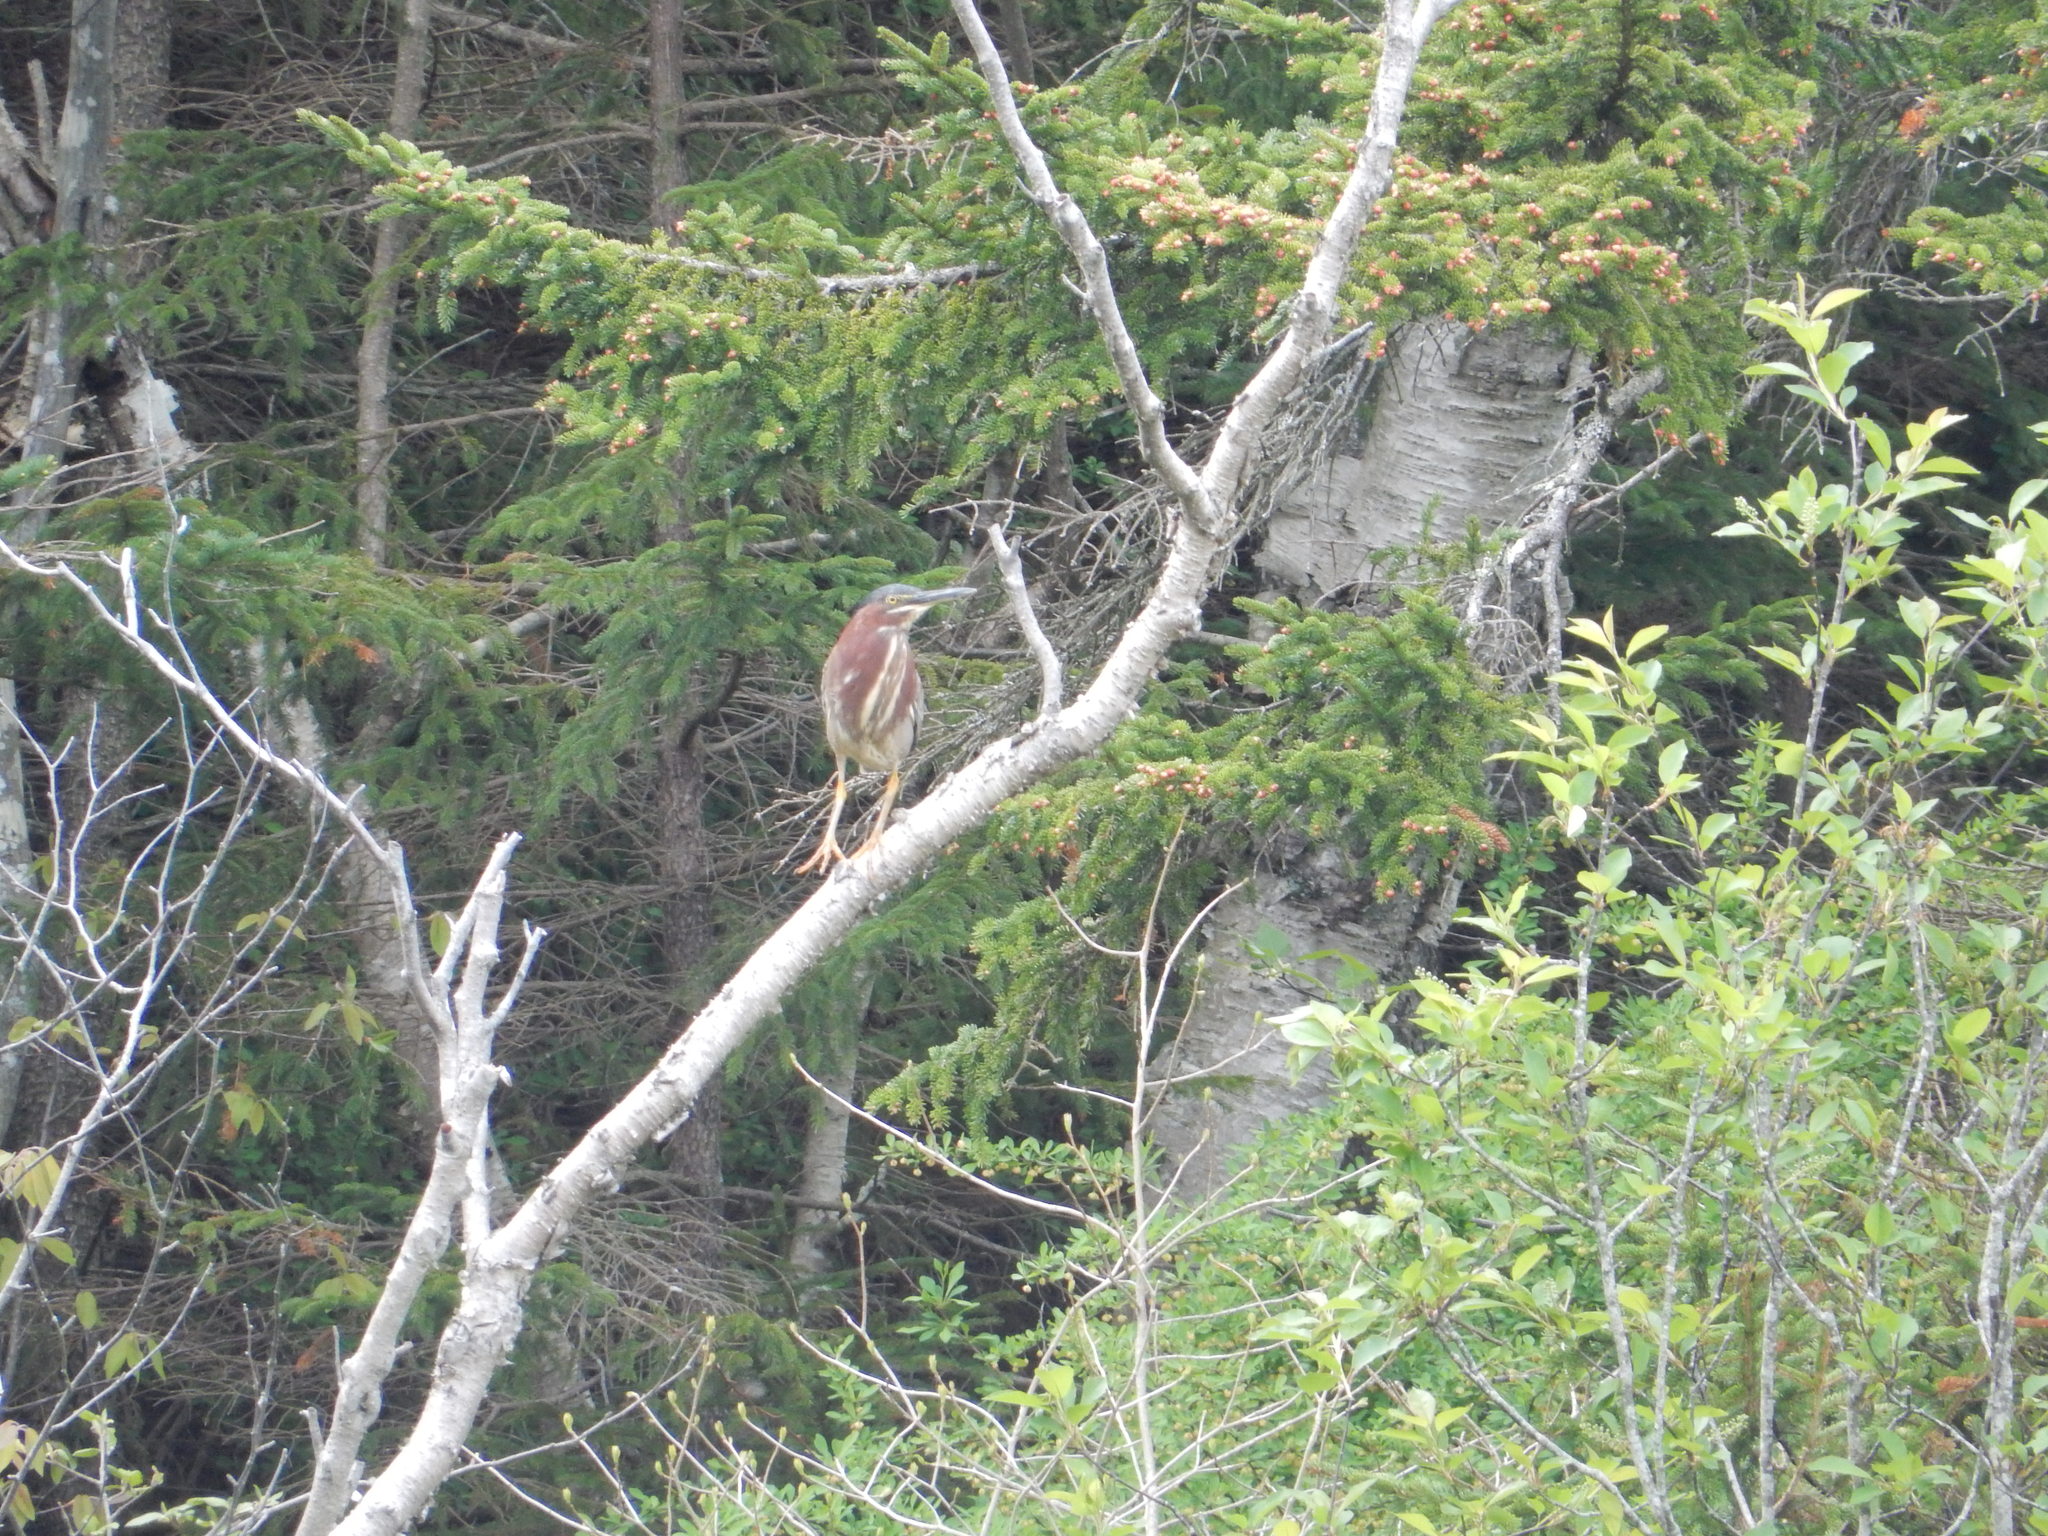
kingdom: Animalia
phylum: Chordata
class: Aves
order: Pelecaniformes
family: Ardeidae
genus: Butorides
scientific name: Butorides virescens
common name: Green heron
